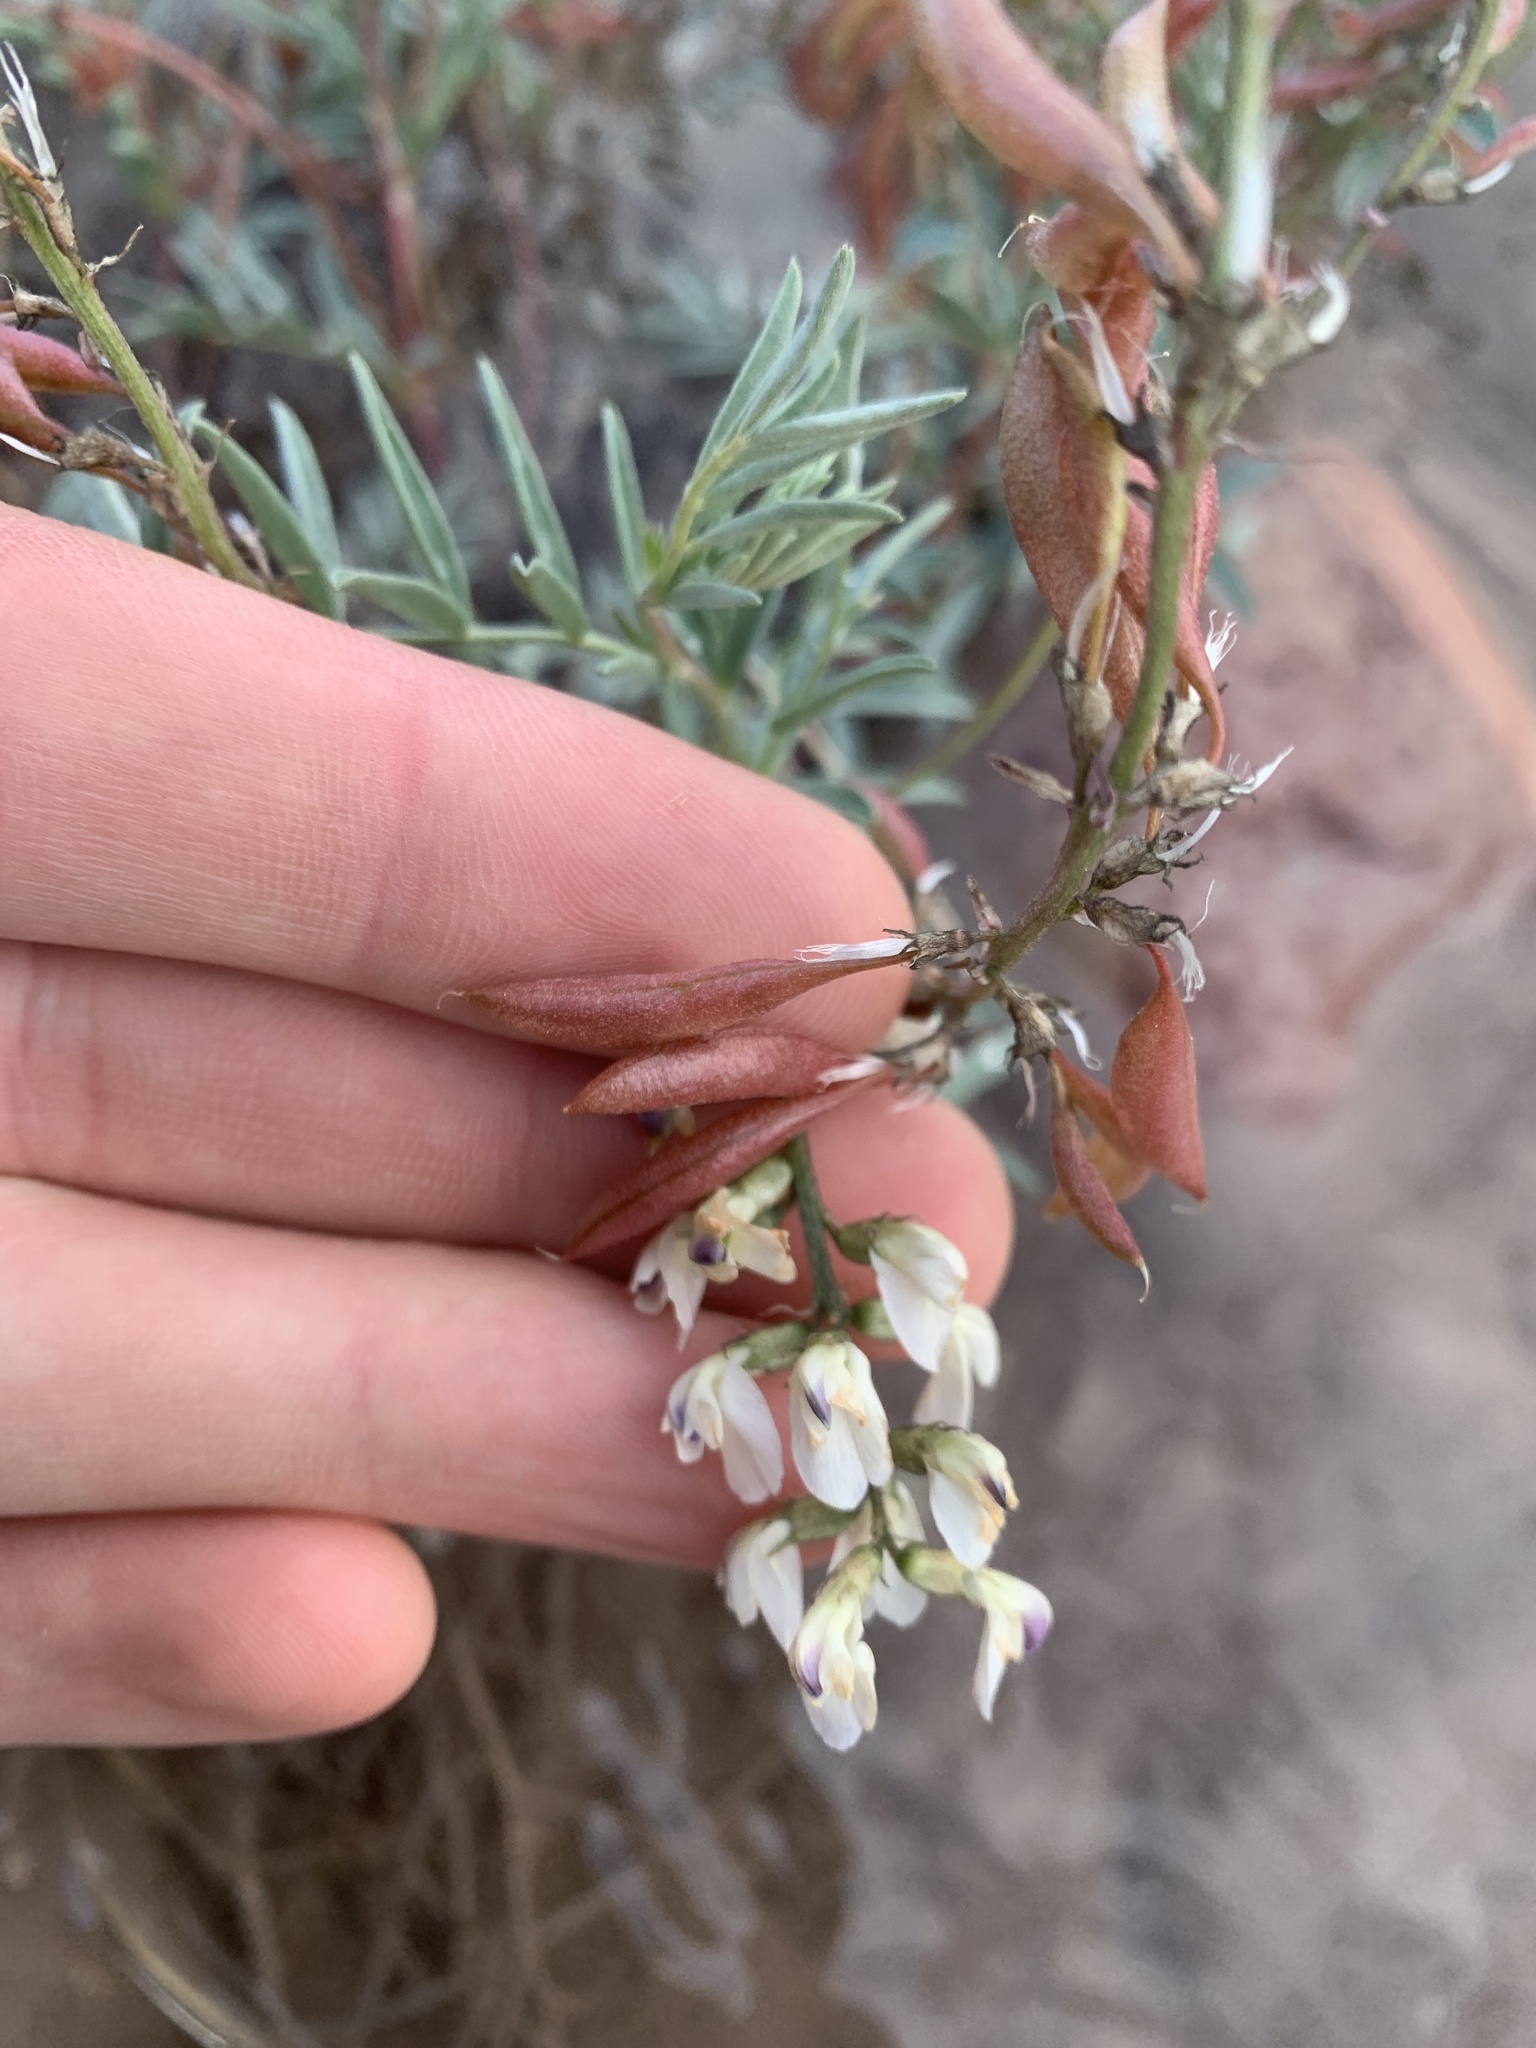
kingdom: Plantae
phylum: Tracheophyta
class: Magnoliopsida
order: Fabales
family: Fabaceae
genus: Astragalus
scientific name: Astragalus australis
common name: Indian milk-vetch
